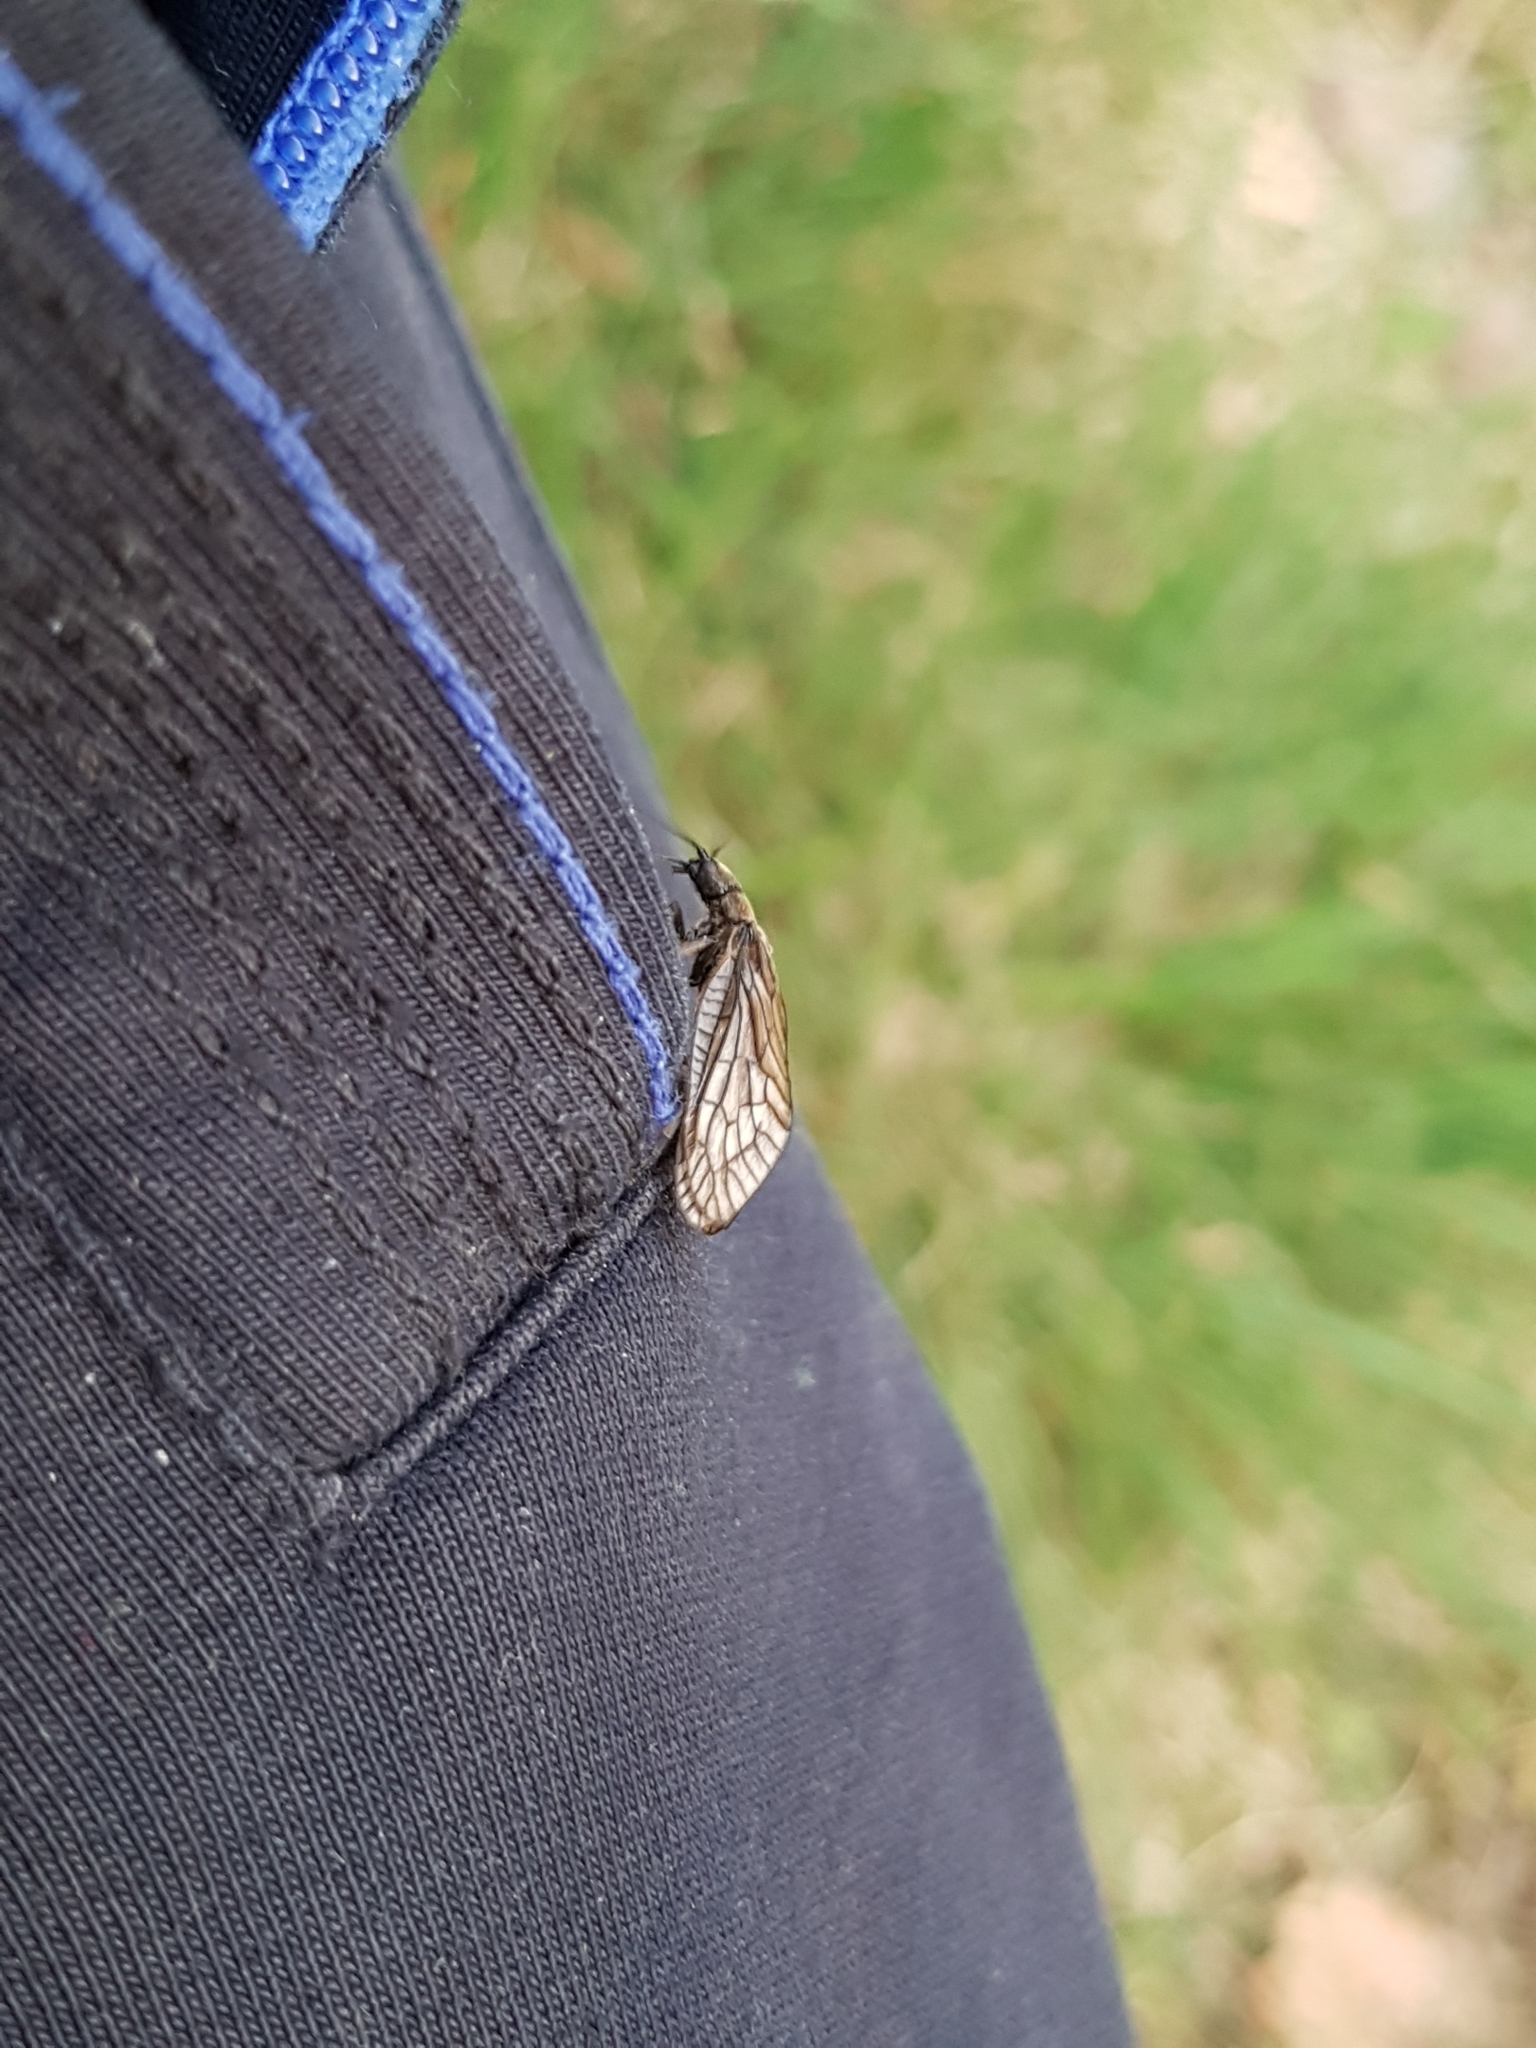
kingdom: Animalia
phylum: Arthropoda
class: Insecta
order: Megaloptera
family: Sialidae
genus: Sialis
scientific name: Sialis
